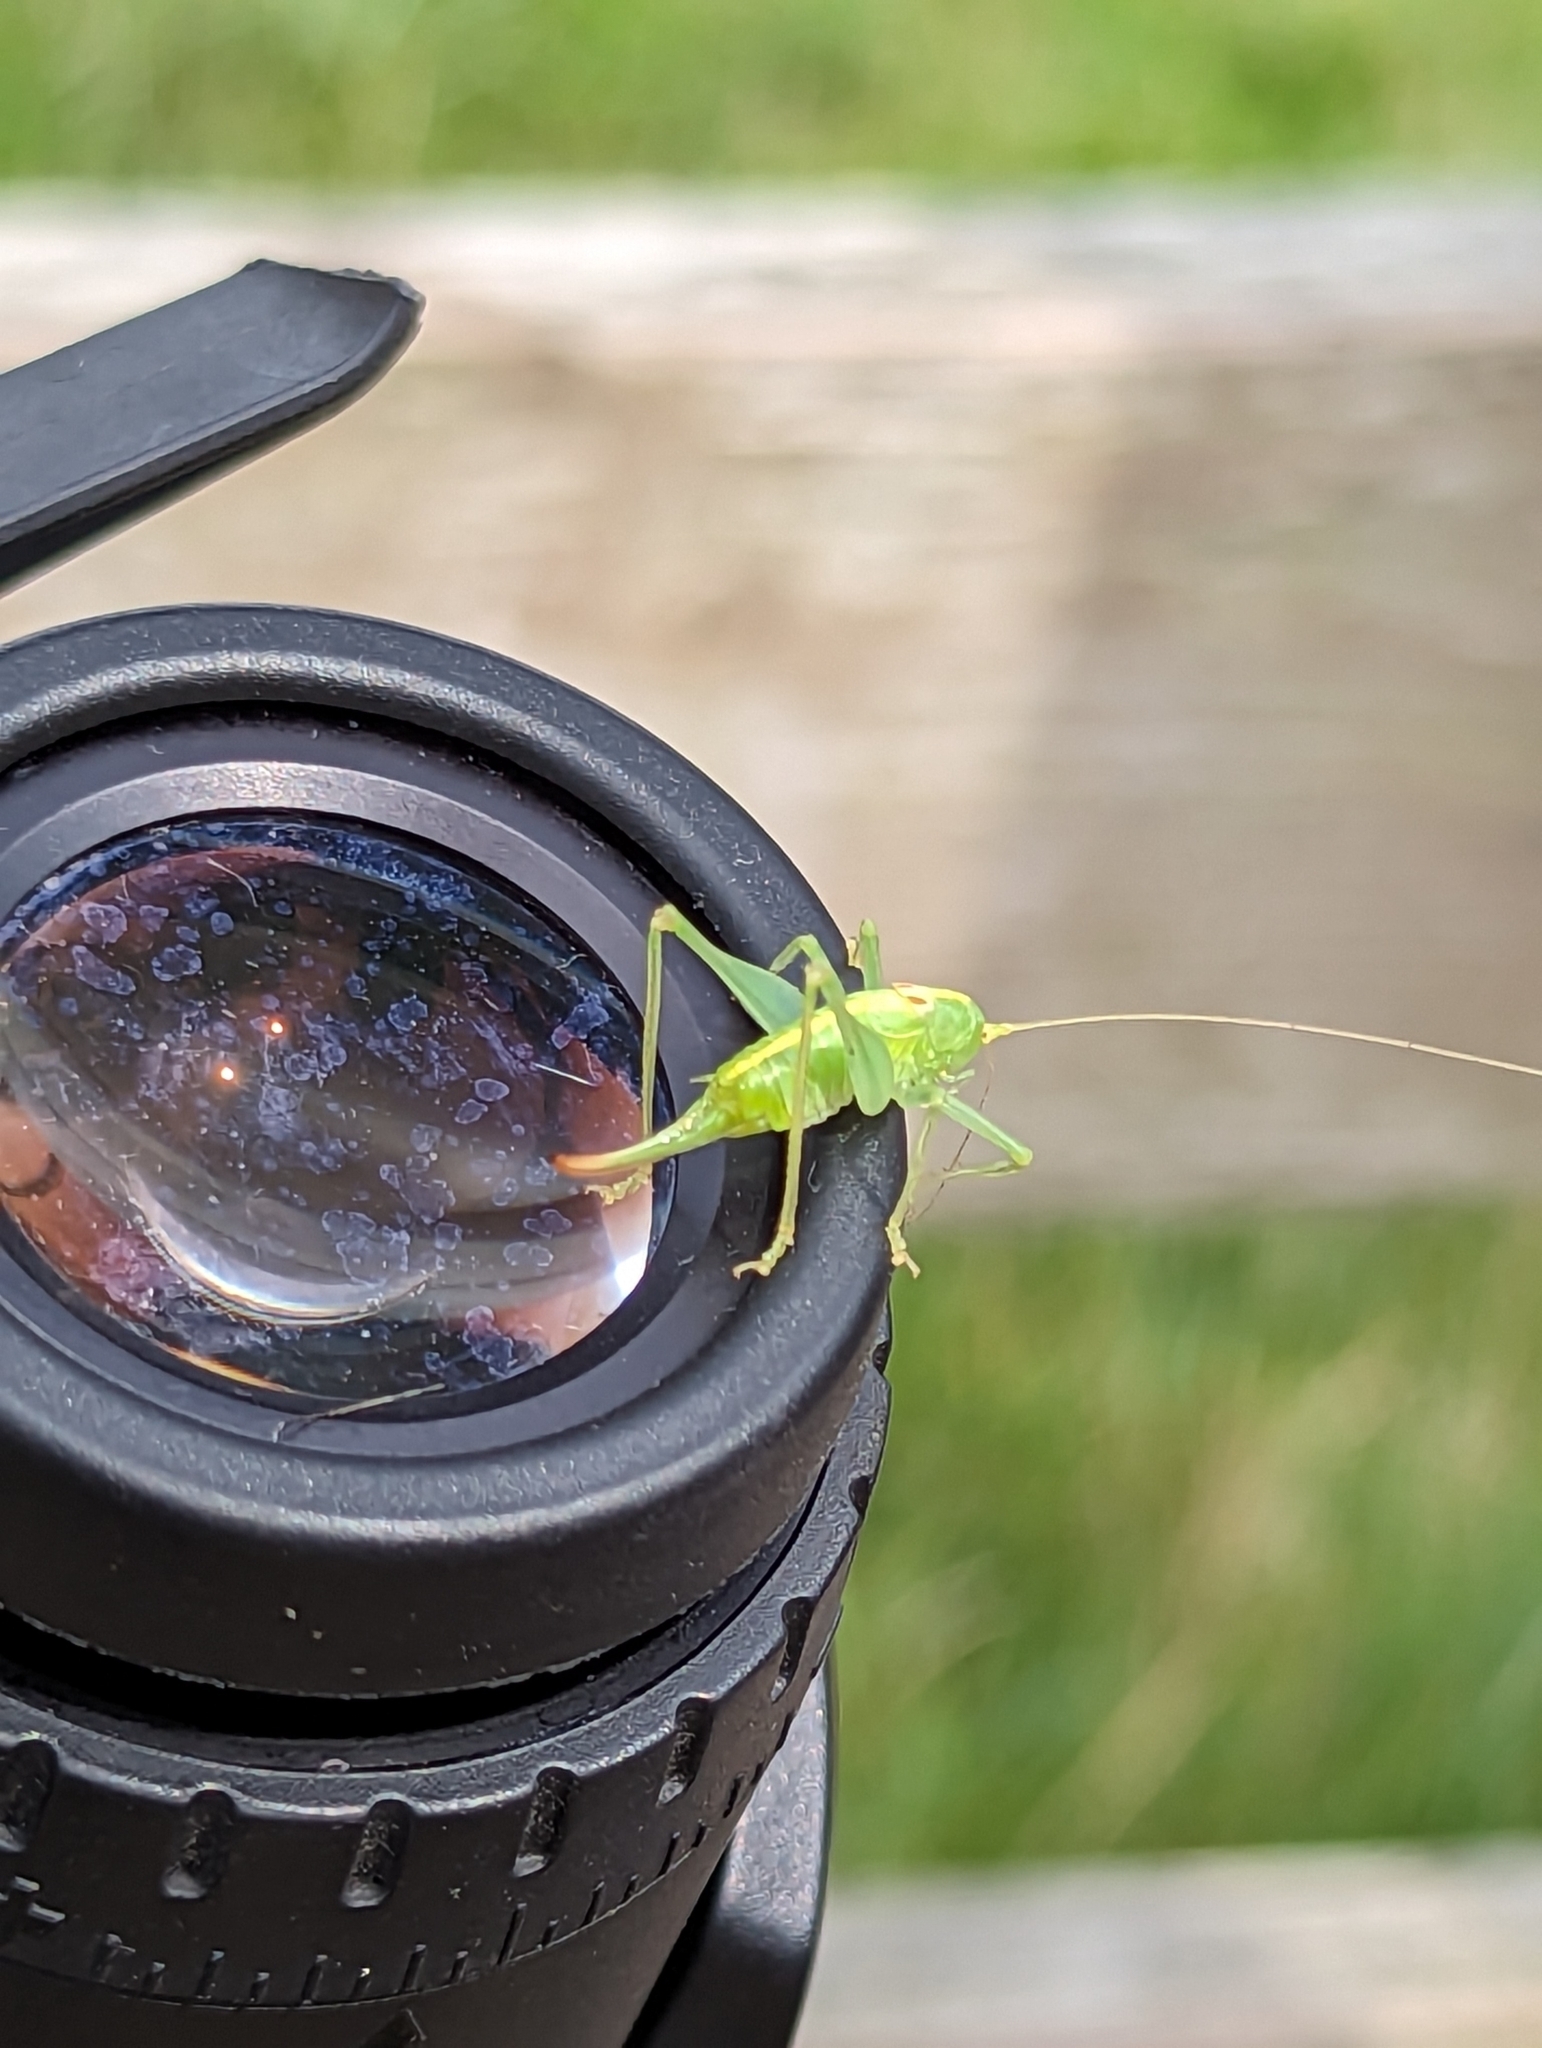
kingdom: Animalia
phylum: Arthropoda
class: Insecta
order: Orthoptera
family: Tettigoniidae
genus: Meconema
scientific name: Meconema meridionale
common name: Southern oak bush-cricket
